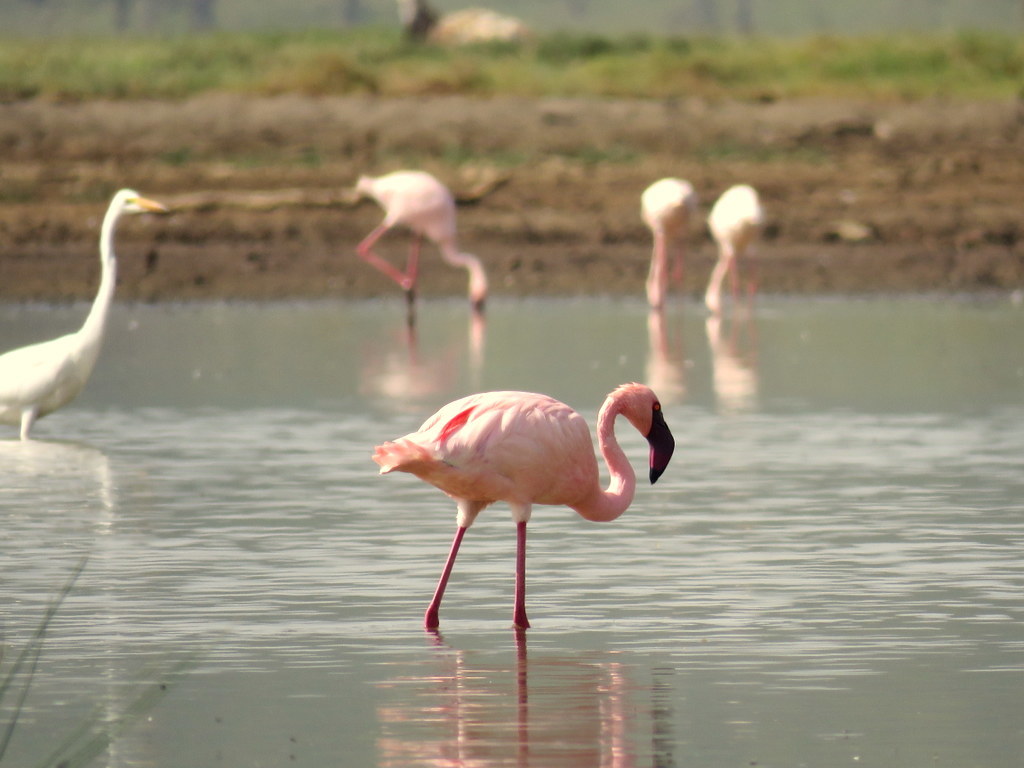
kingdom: Animalia
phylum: Chordata
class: Aves
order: Phoenicopteriformes
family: Phoenicopteridae
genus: Phoeniconaias
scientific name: Phoeniconaias minor
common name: Lesser flamingo
